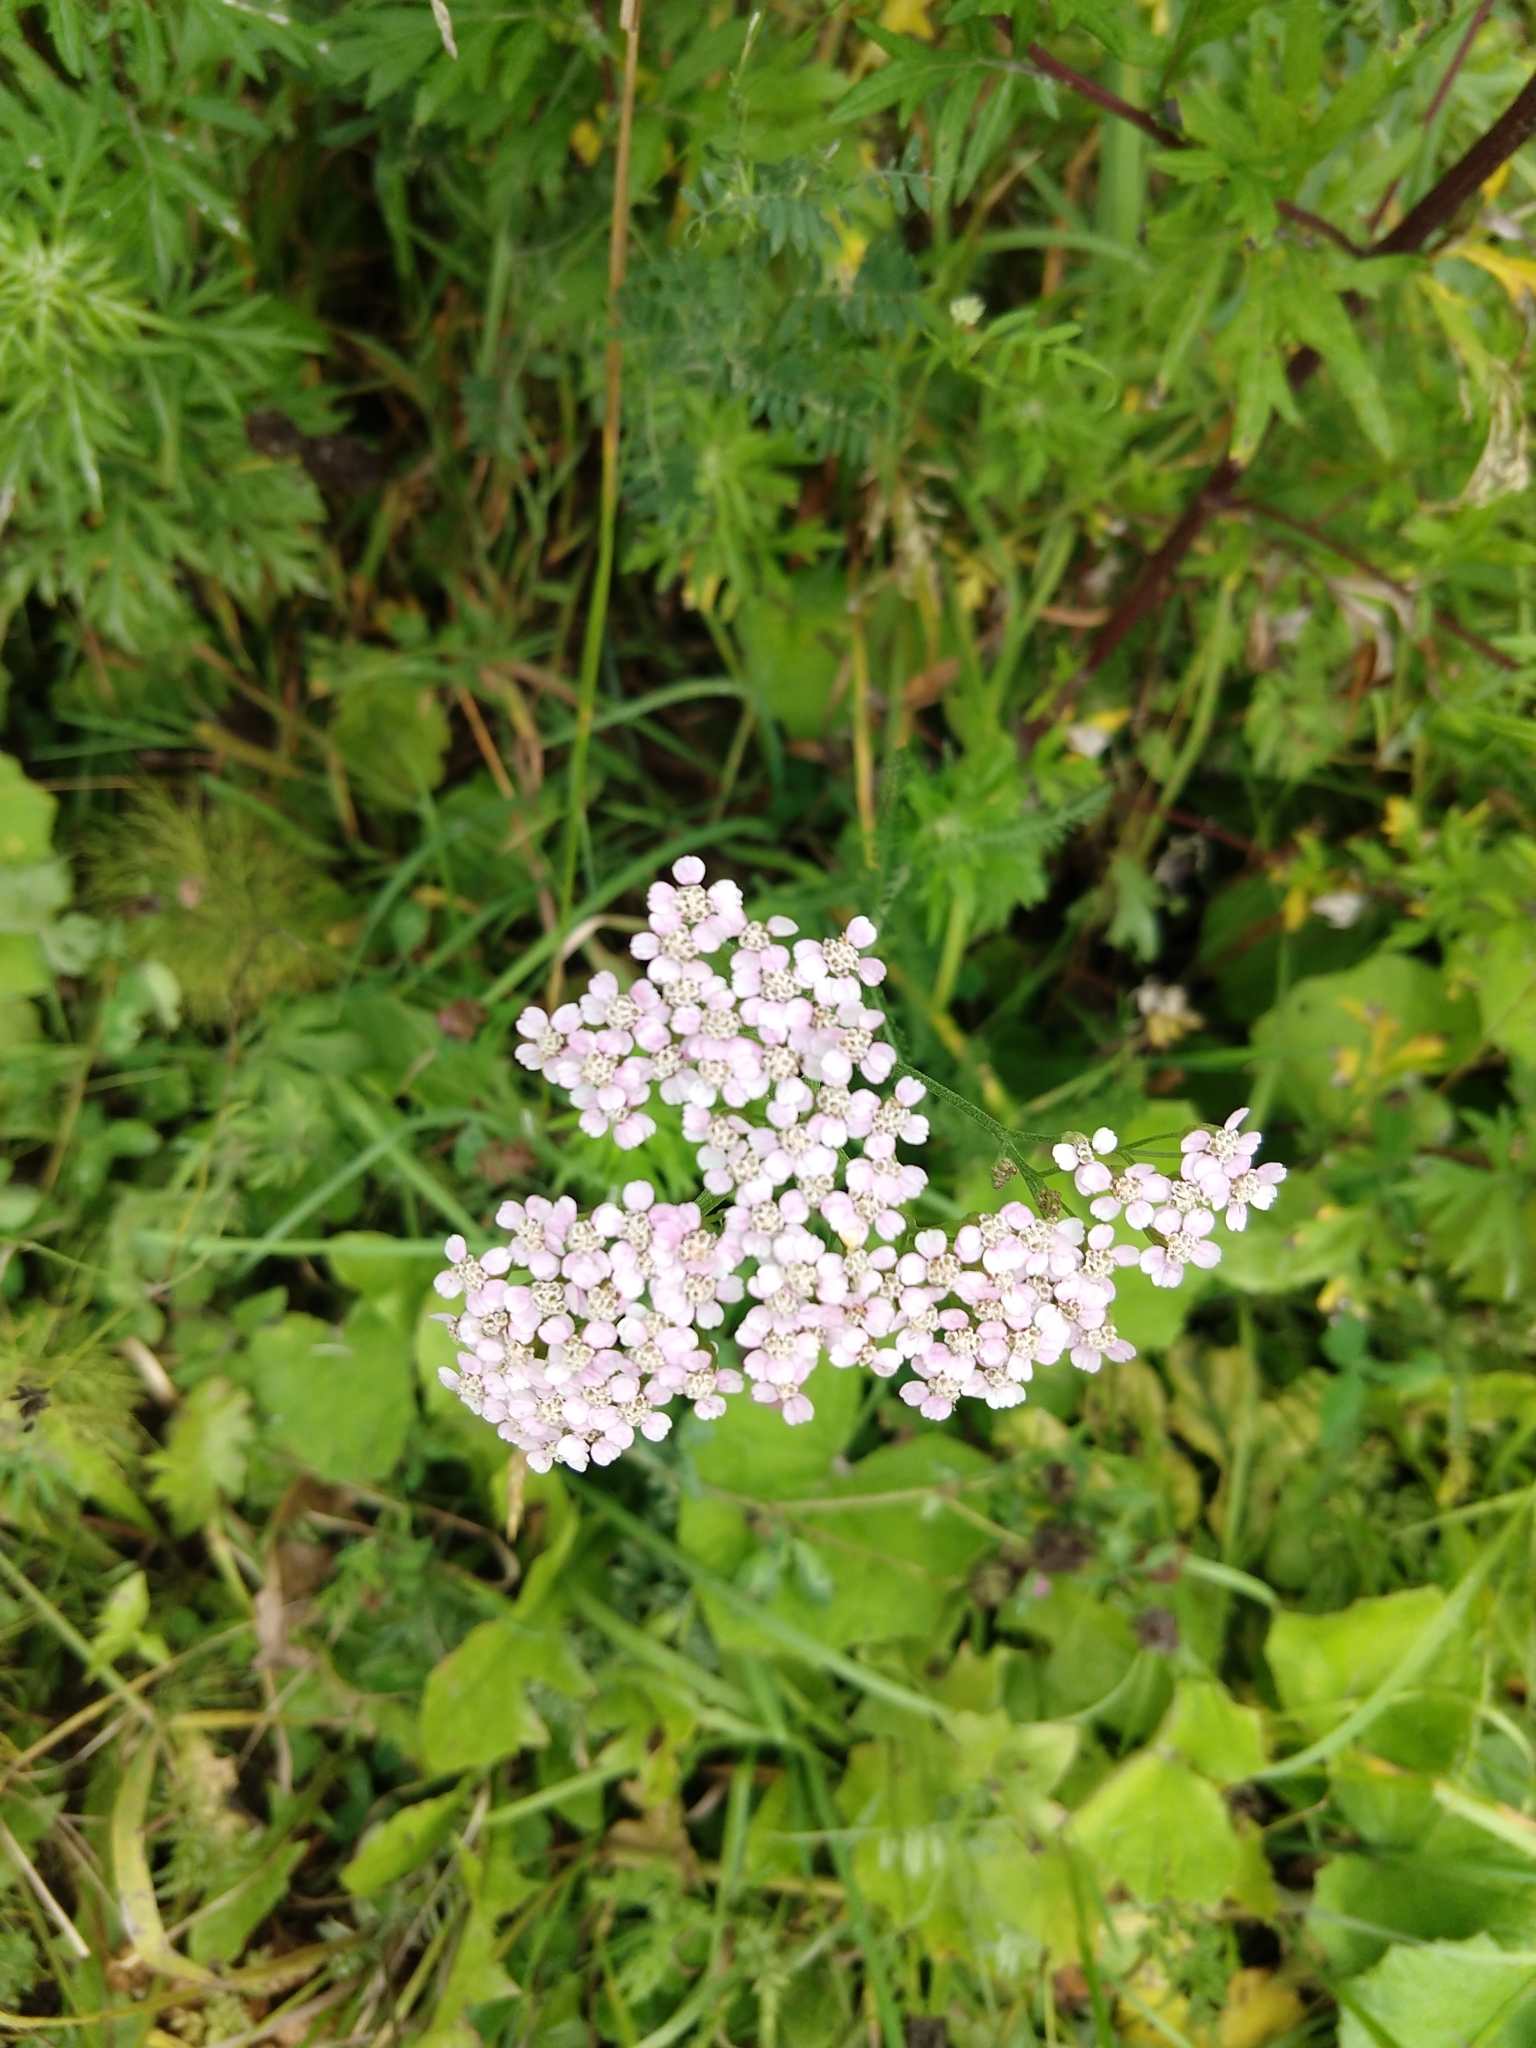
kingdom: Plantae
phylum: Tracheophyta
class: Magnoliopsida
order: Asterales
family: Asteraceae
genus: Achillea
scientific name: Achillea millefolium
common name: Yarrow
